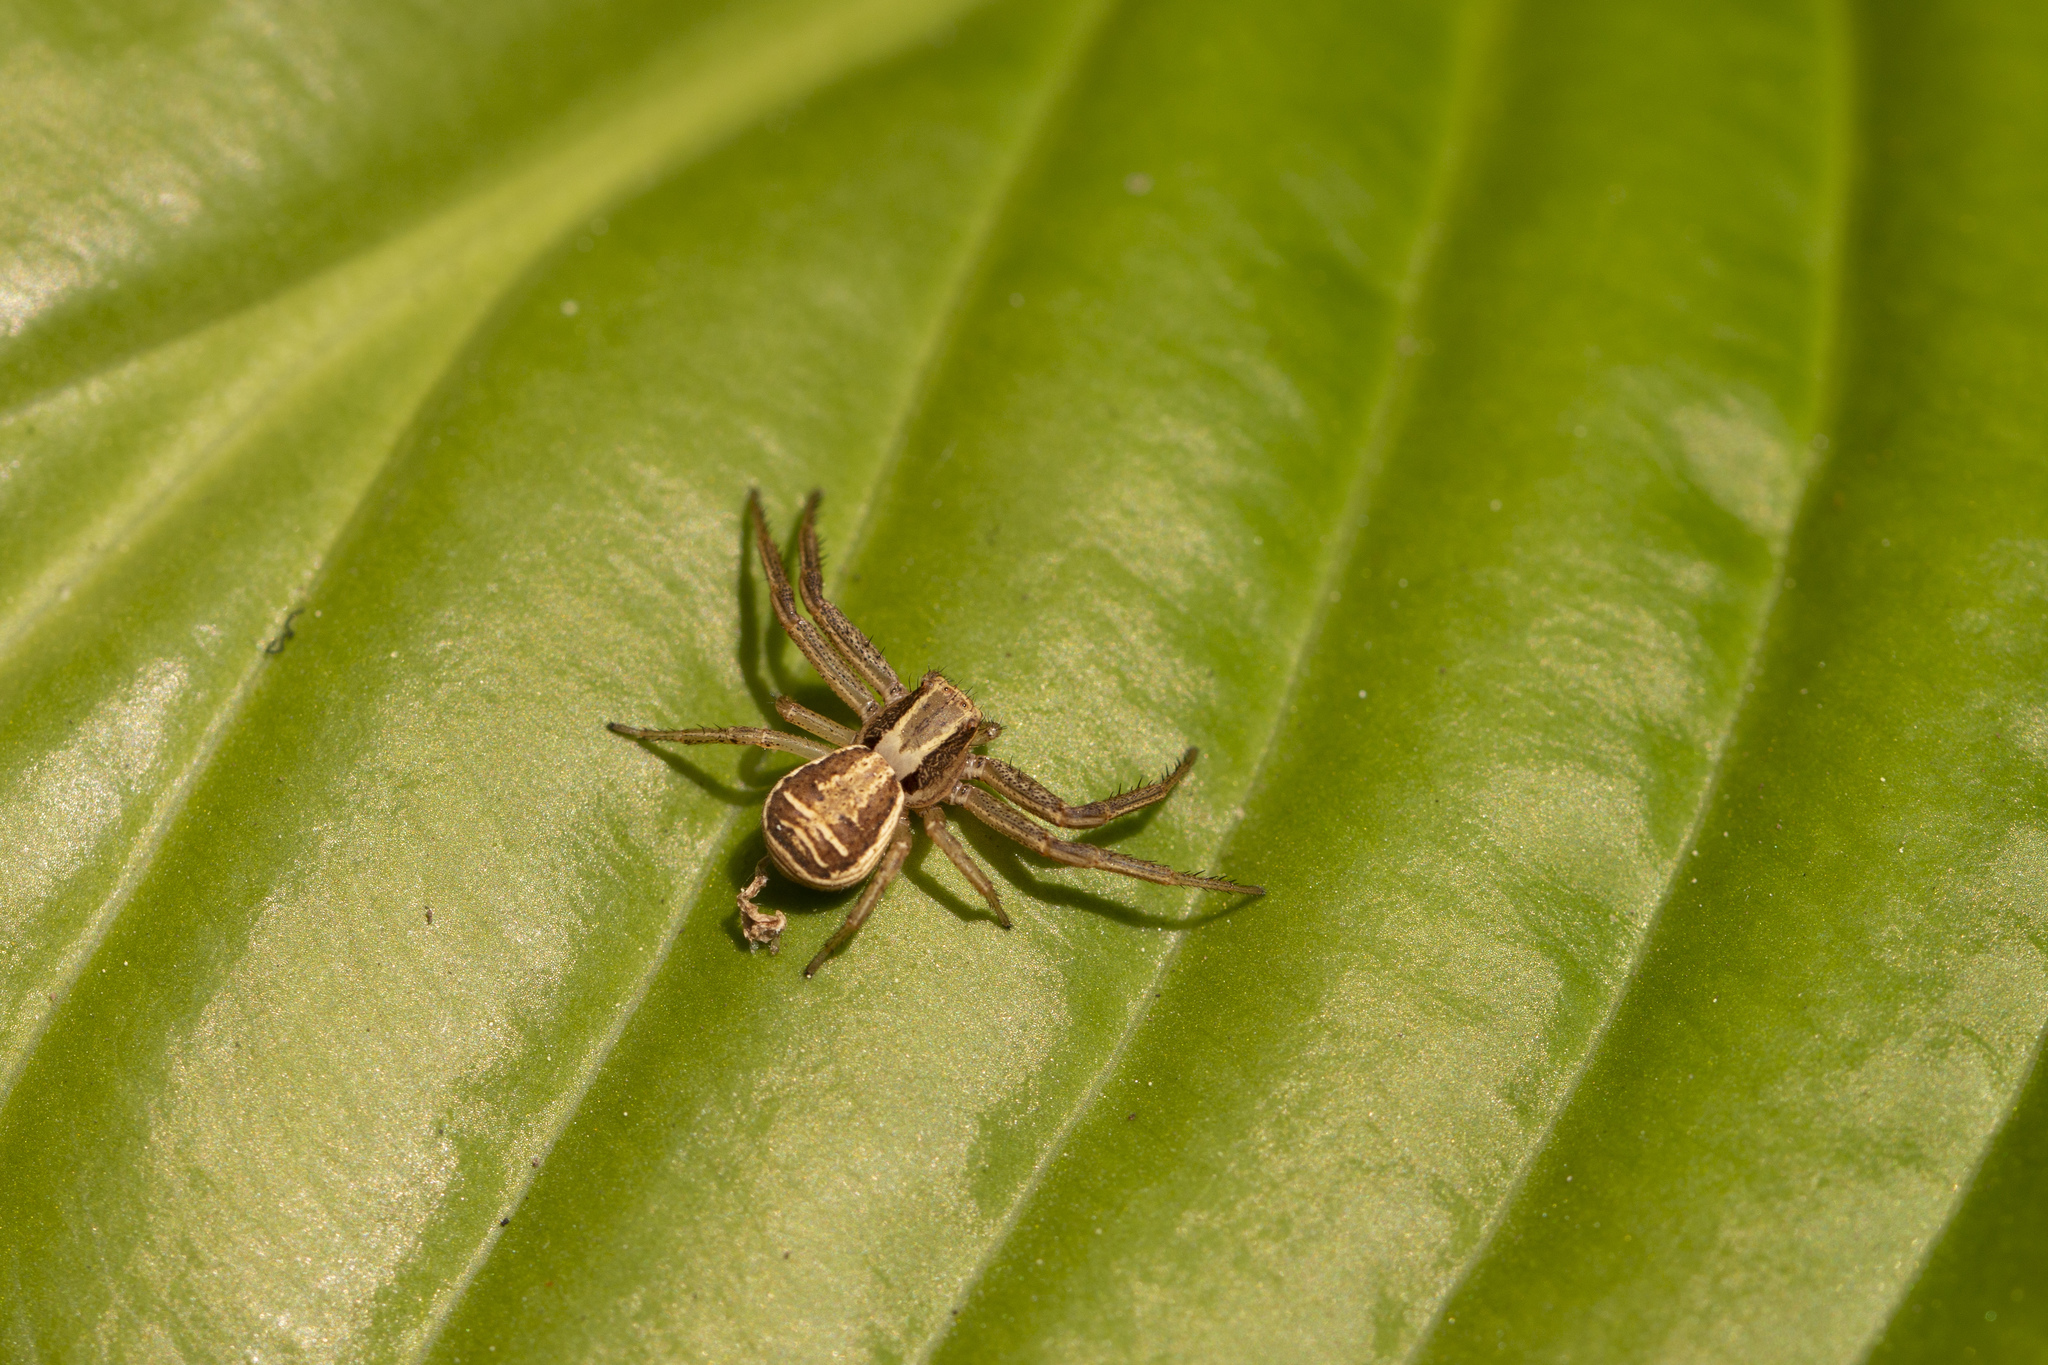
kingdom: Animalia
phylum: Arthropoda
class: Arachnida
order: Araneae
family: Thomisidae
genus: Xysticus
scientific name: Xysticus ulmi
